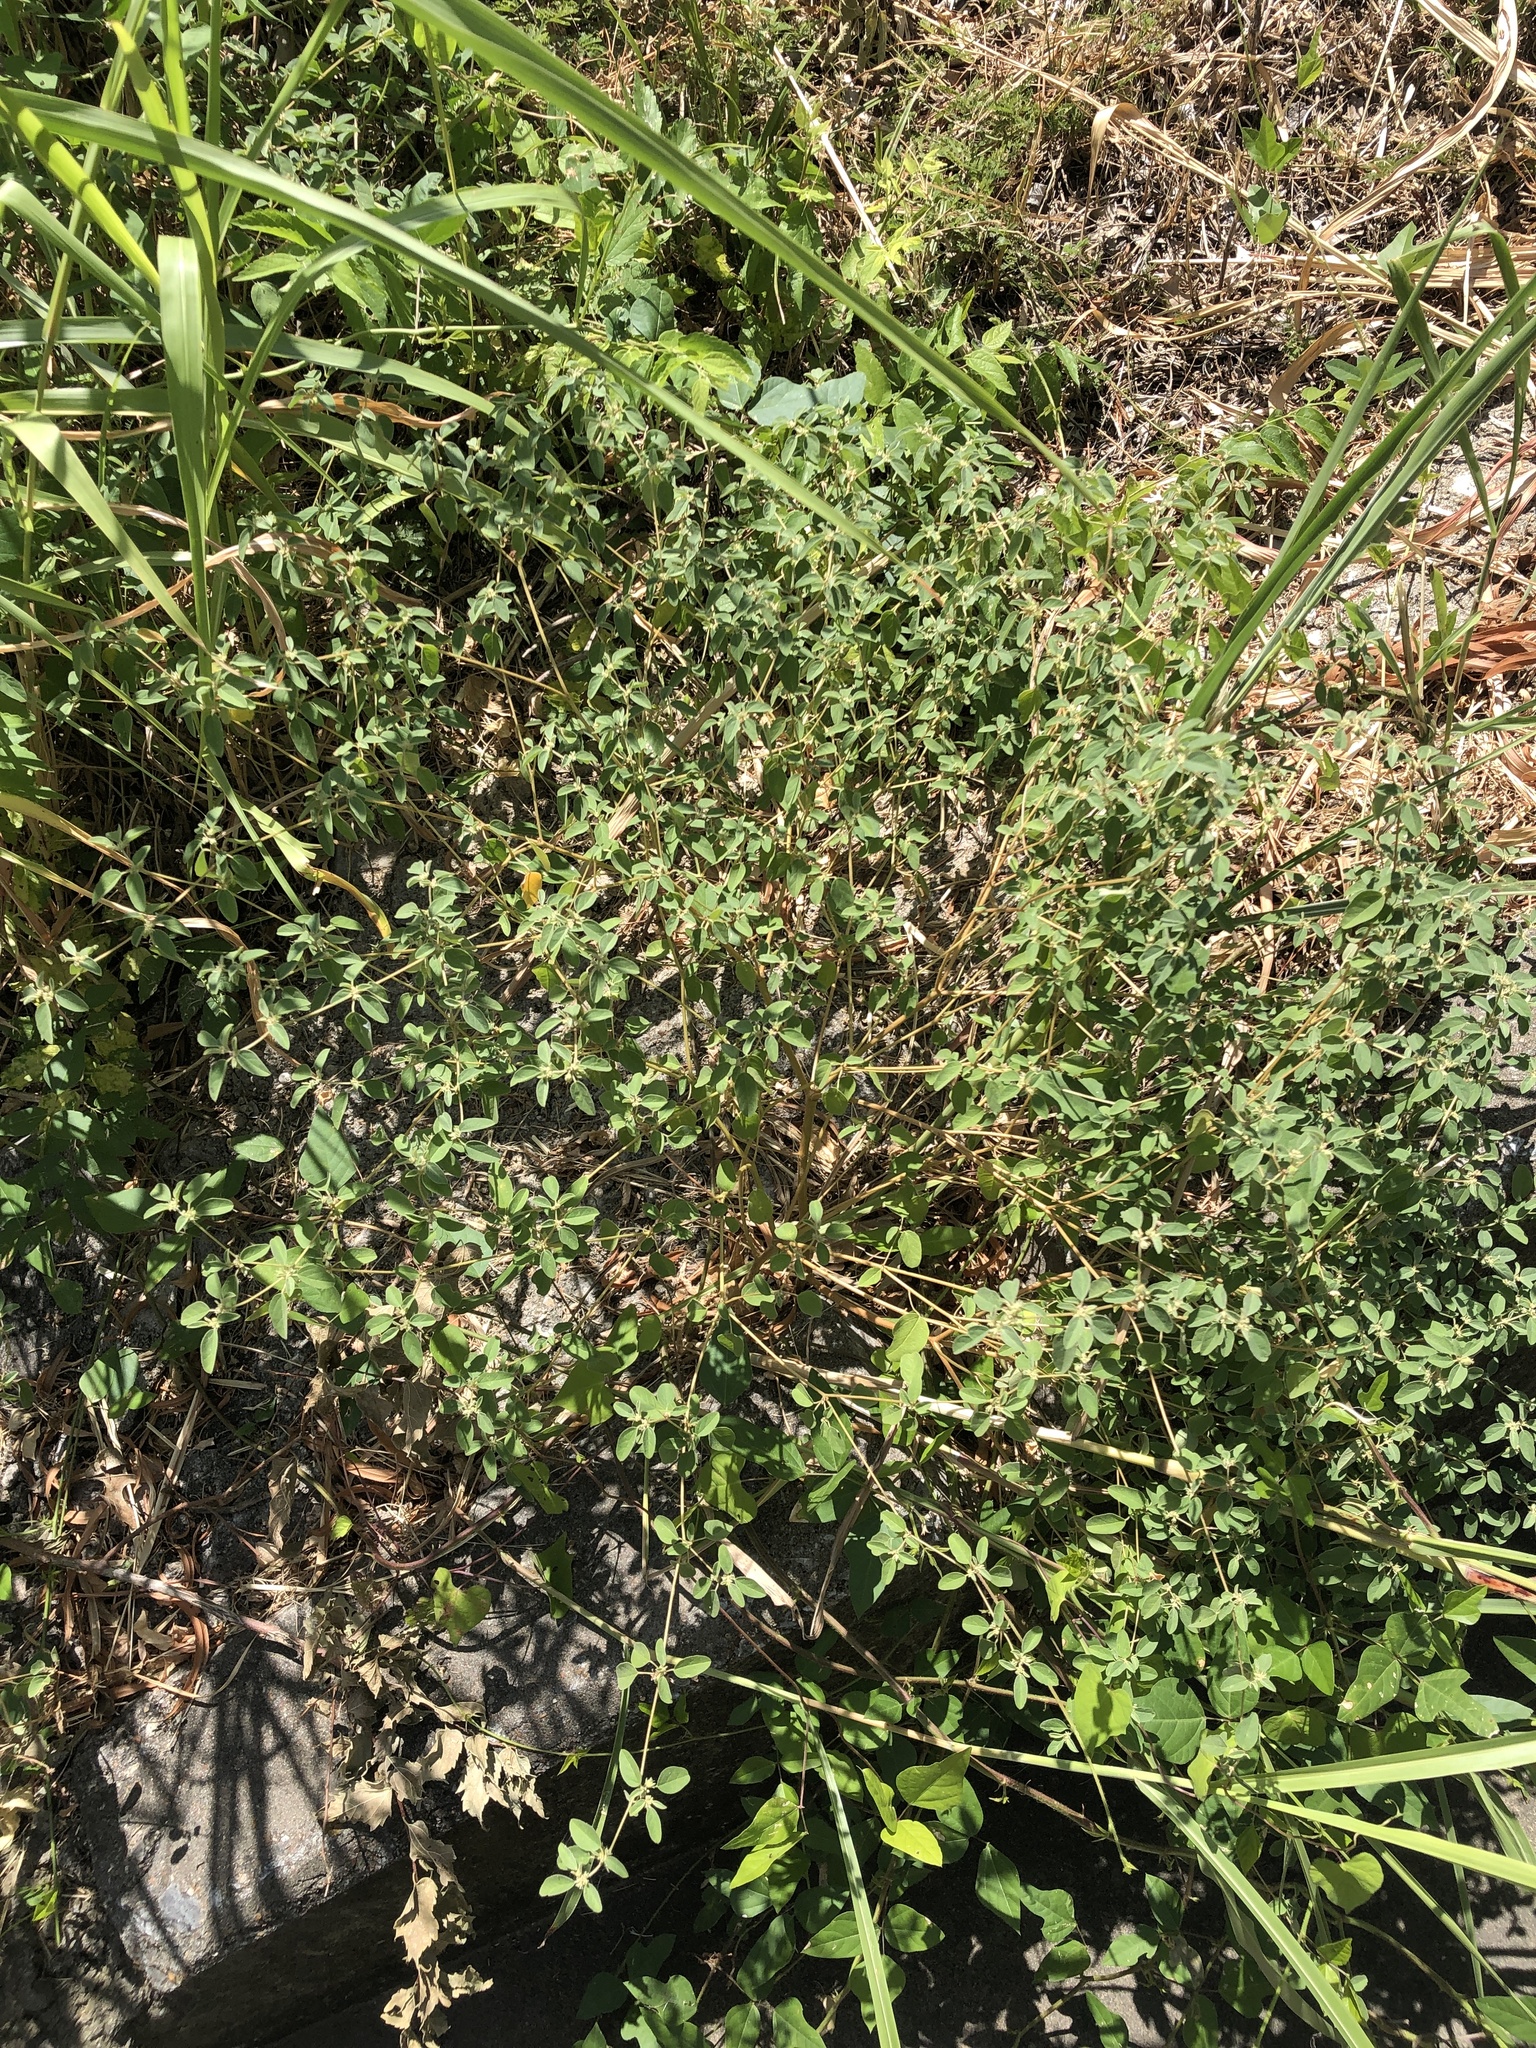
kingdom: Plantae
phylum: Tracheophyta
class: Magnoliopsida
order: Malpighiales
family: Euphorbiaceae
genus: Croton
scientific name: Croton monanthogynus
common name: One-seed croton
